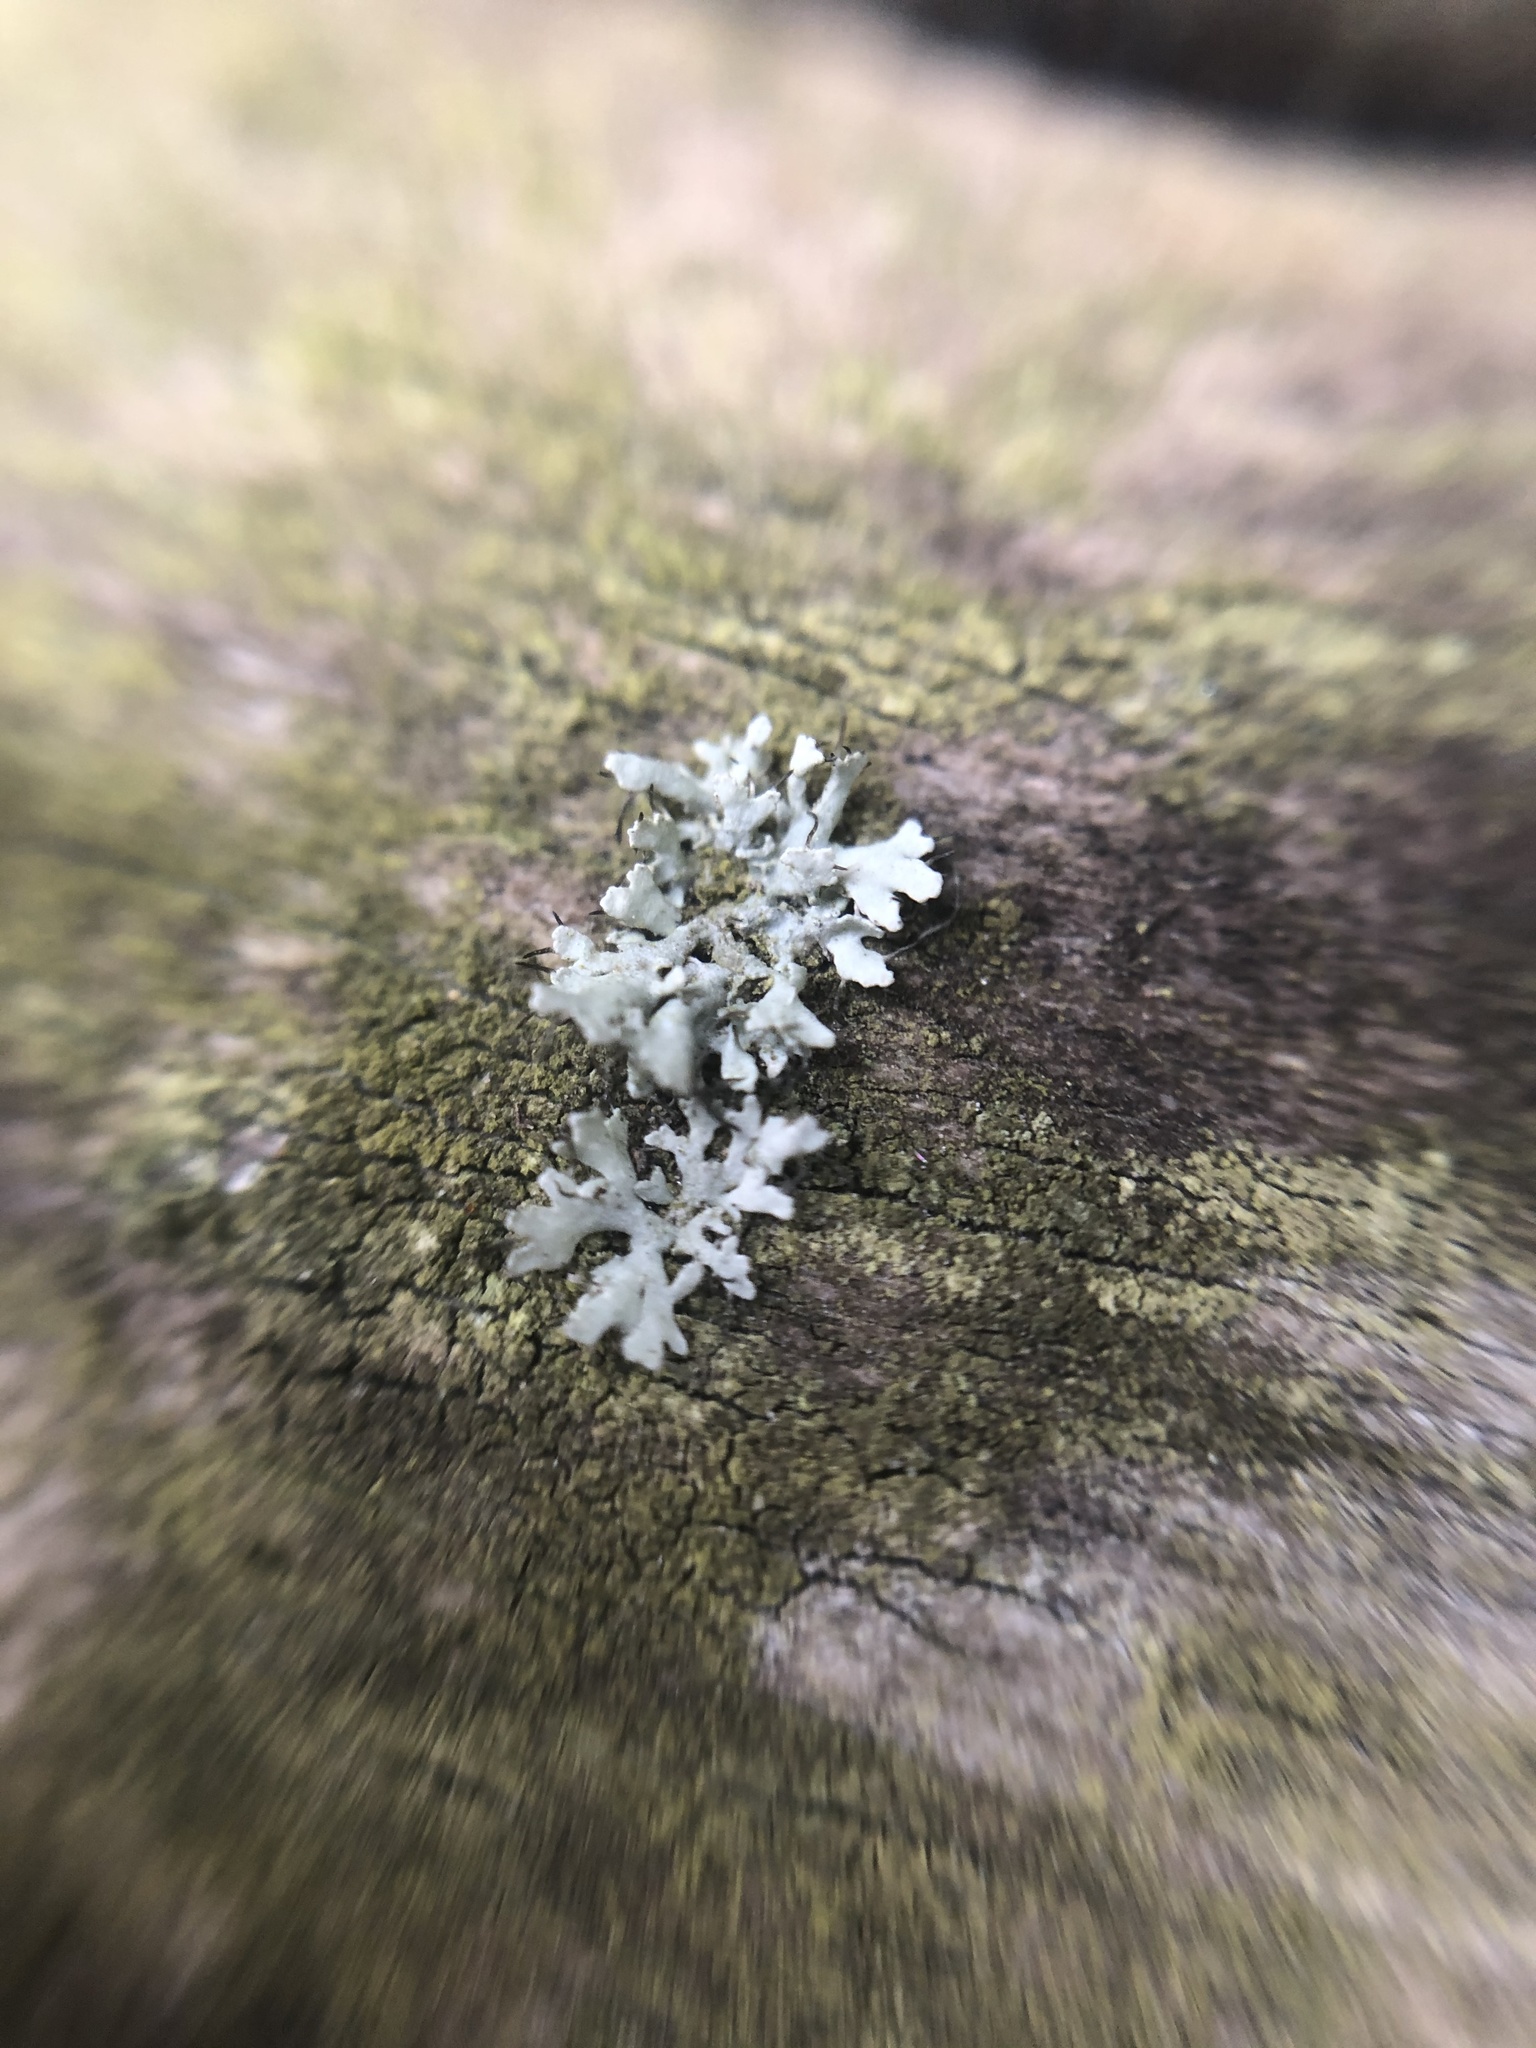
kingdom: Fungi
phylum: Ascomycota
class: Lecanoromycetes
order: Caliciales
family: Physciaceae
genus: Physcia
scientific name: Physcia
